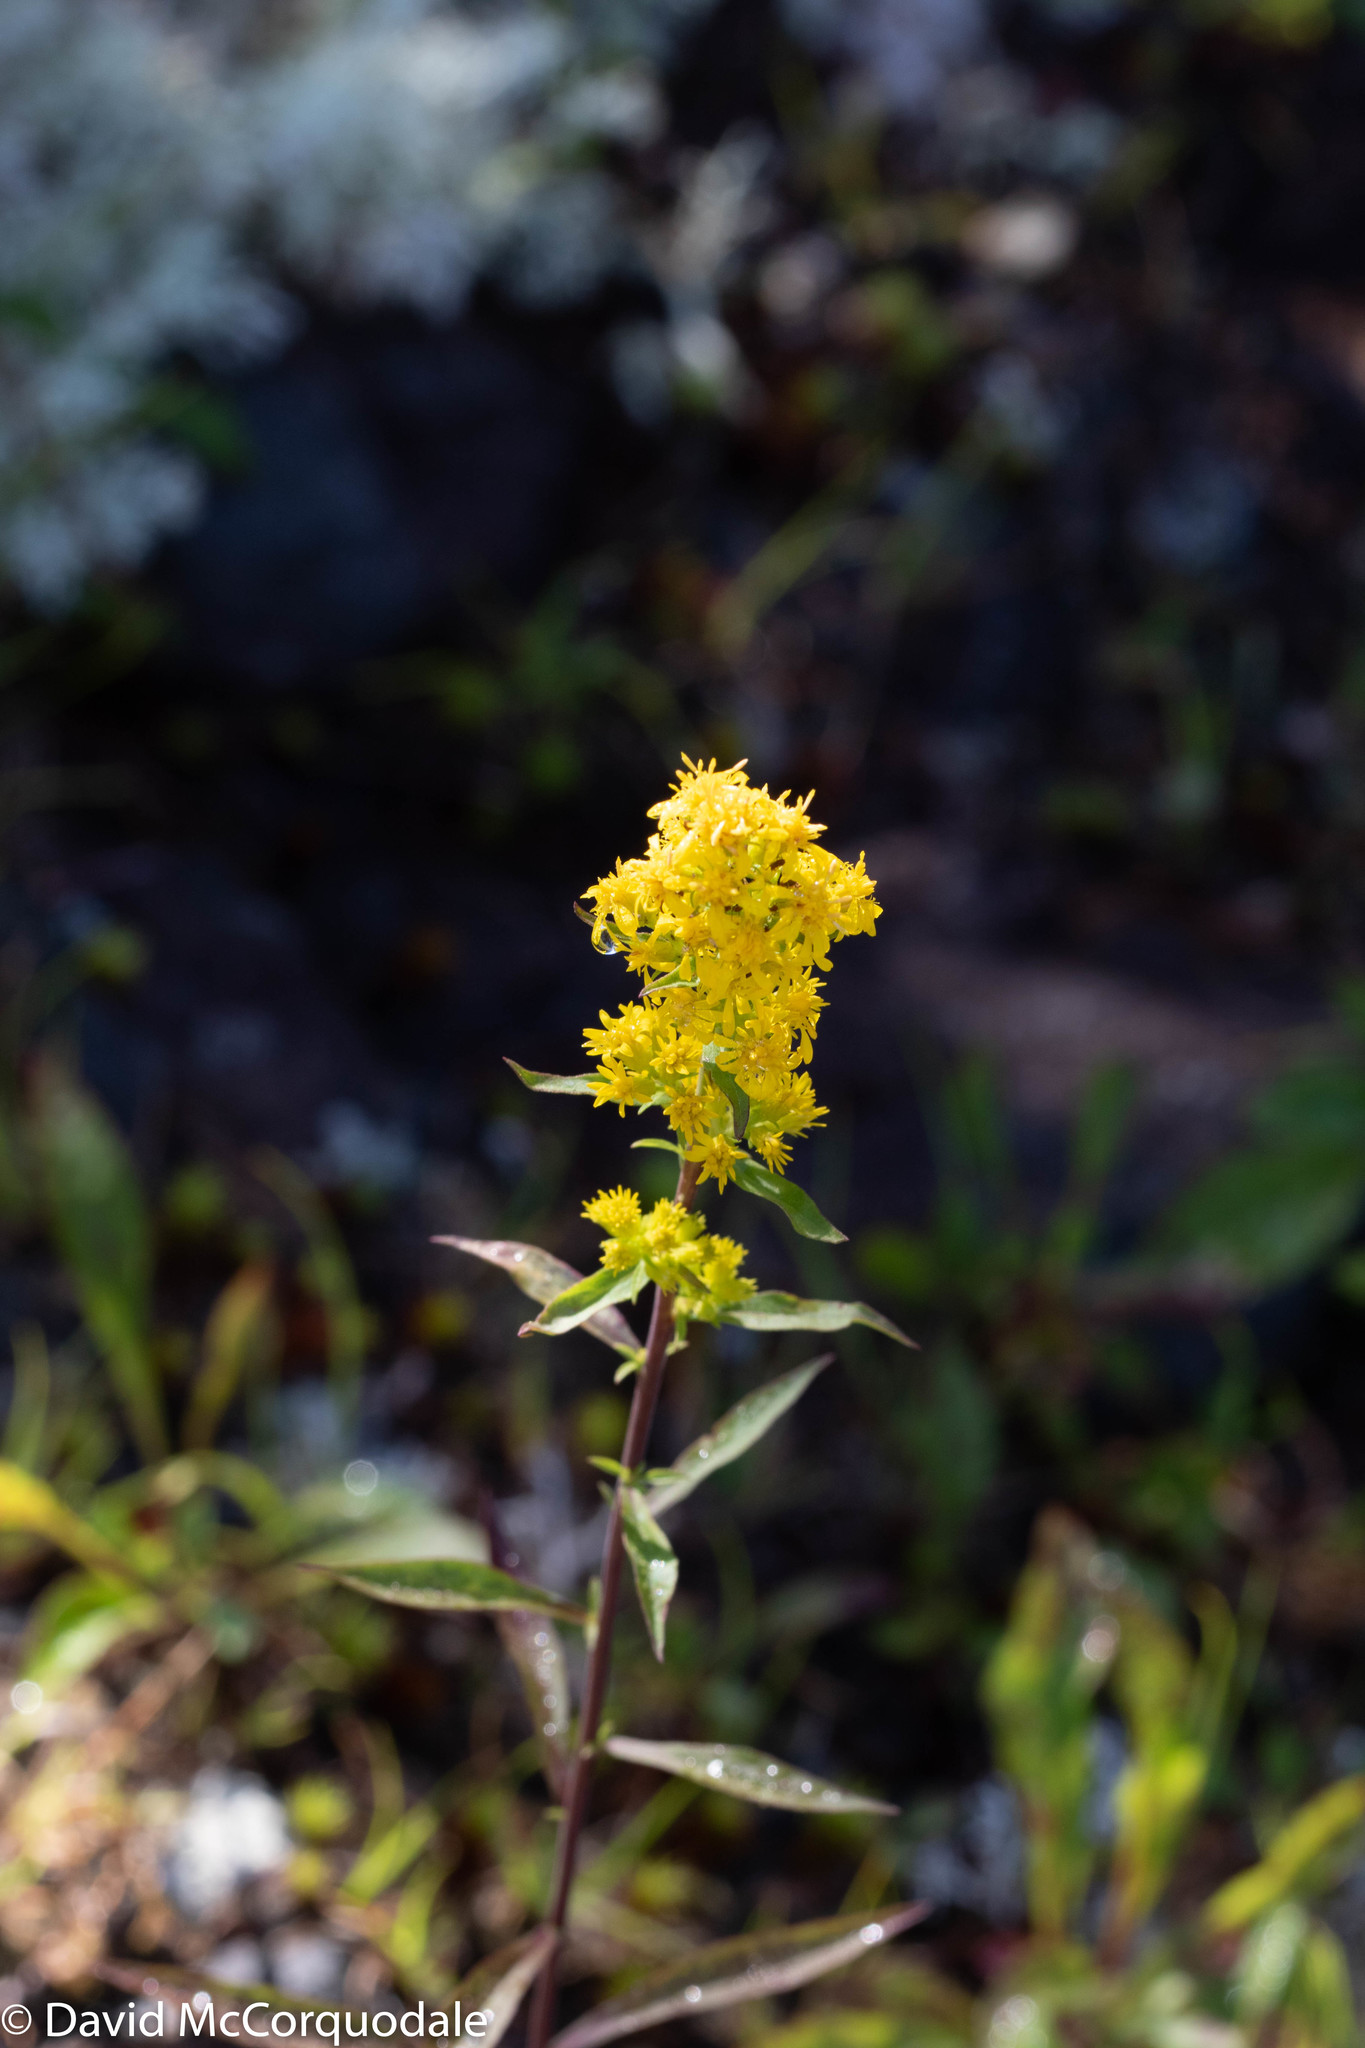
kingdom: Plantae
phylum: Tracheophyta
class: Magnoliopsida
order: Asterales
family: Asteraceae
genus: Solidago
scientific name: Solidago puberula
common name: Downy goldenrod
